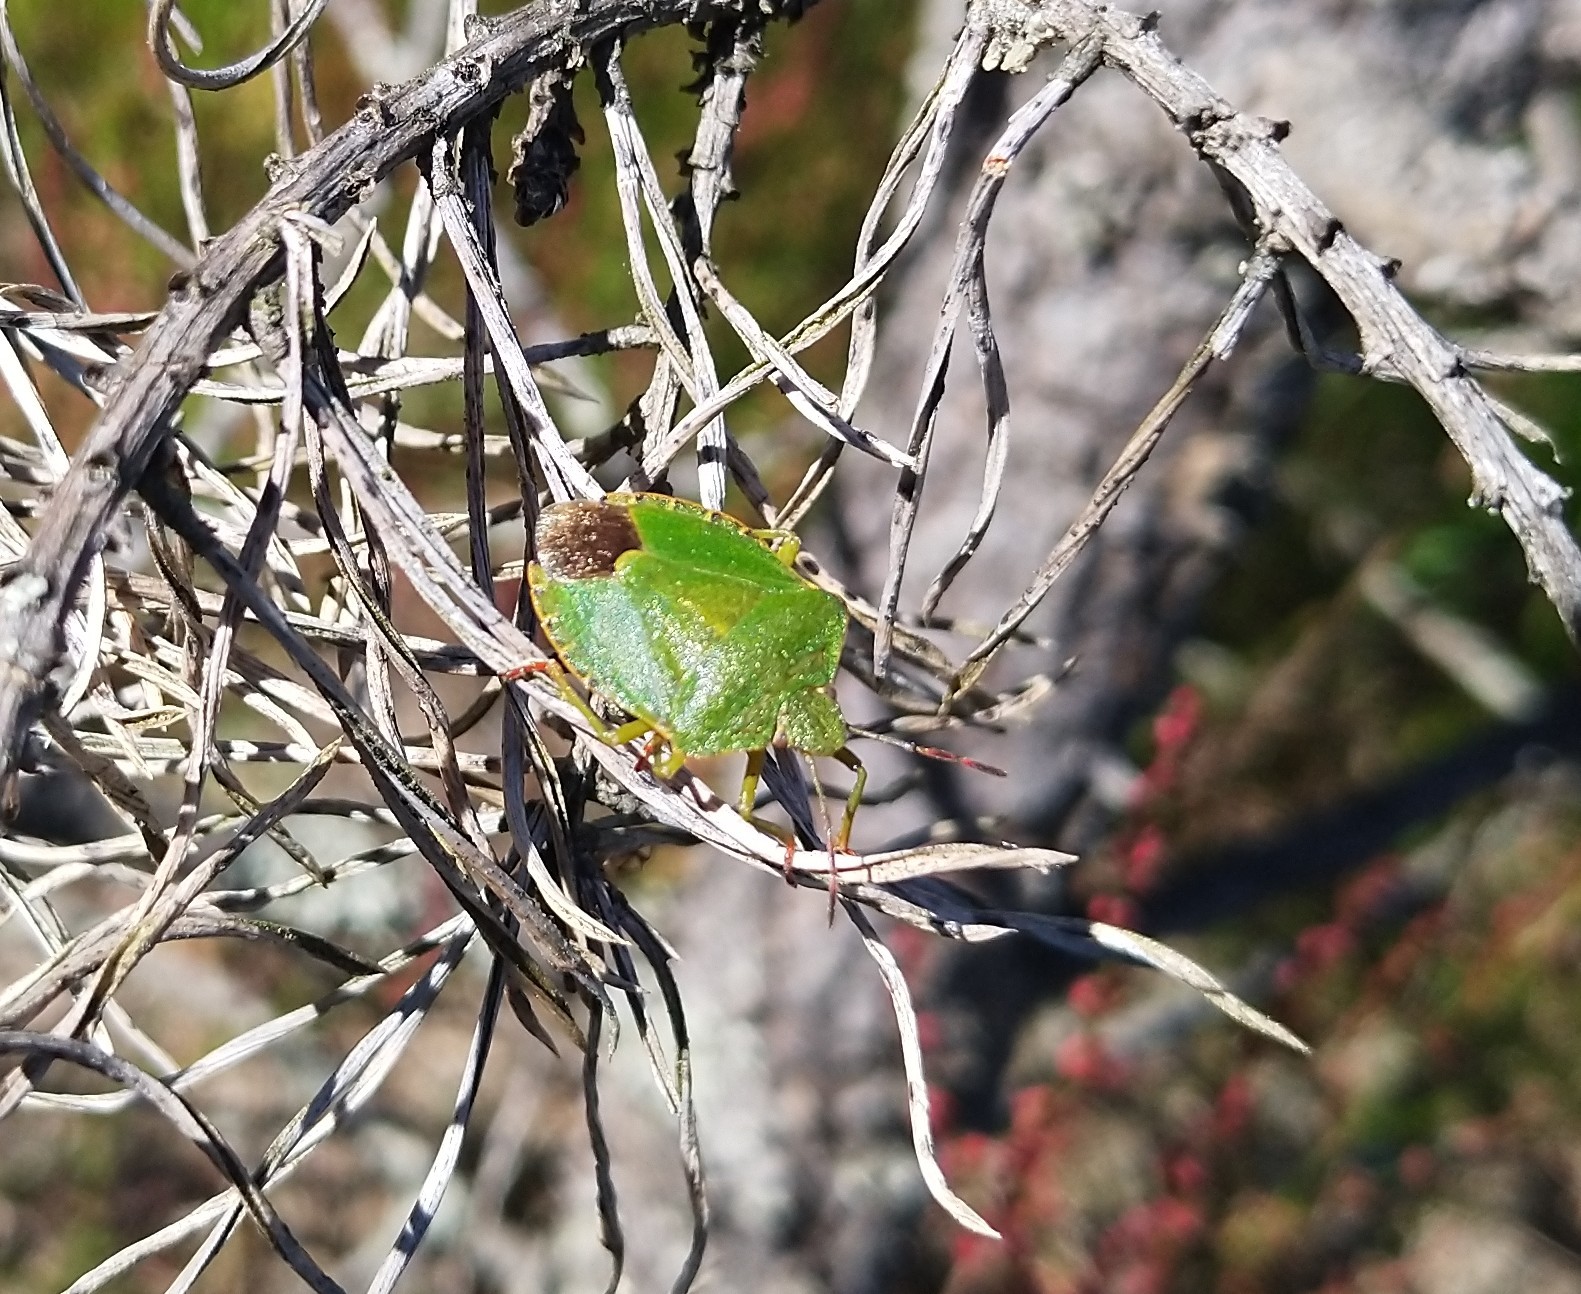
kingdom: Animalia
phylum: Arthropoda
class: Insecta
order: Hemiptera
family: Pentatomidae
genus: Palomena
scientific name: Palomena prasina
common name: Green shieldbug
